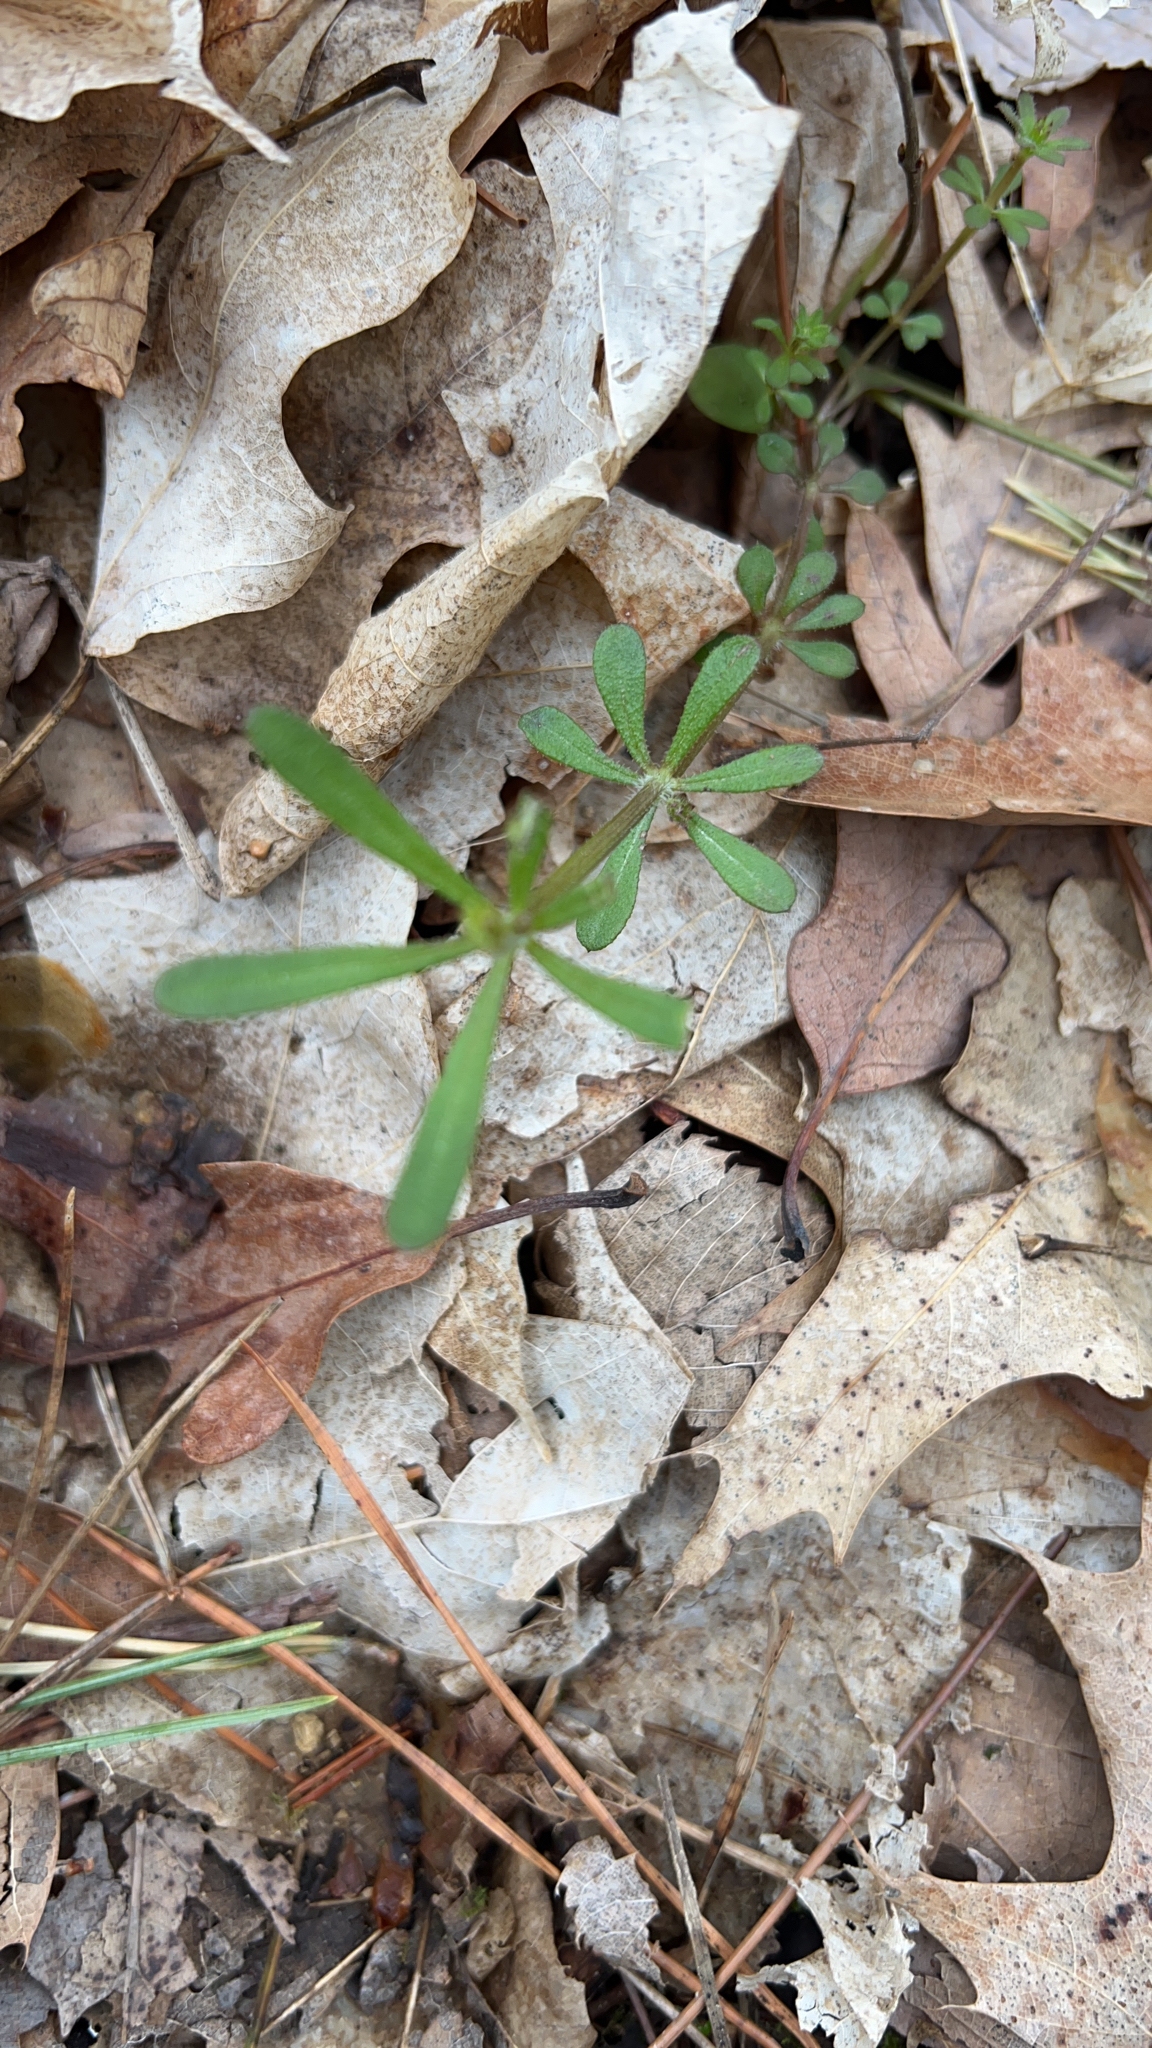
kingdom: Plantae
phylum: Tracheophyta
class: Magnoliopsida
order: Gentianales
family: Rubiaceae
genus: Galium
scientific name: Galium aparine
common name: Cleavers
